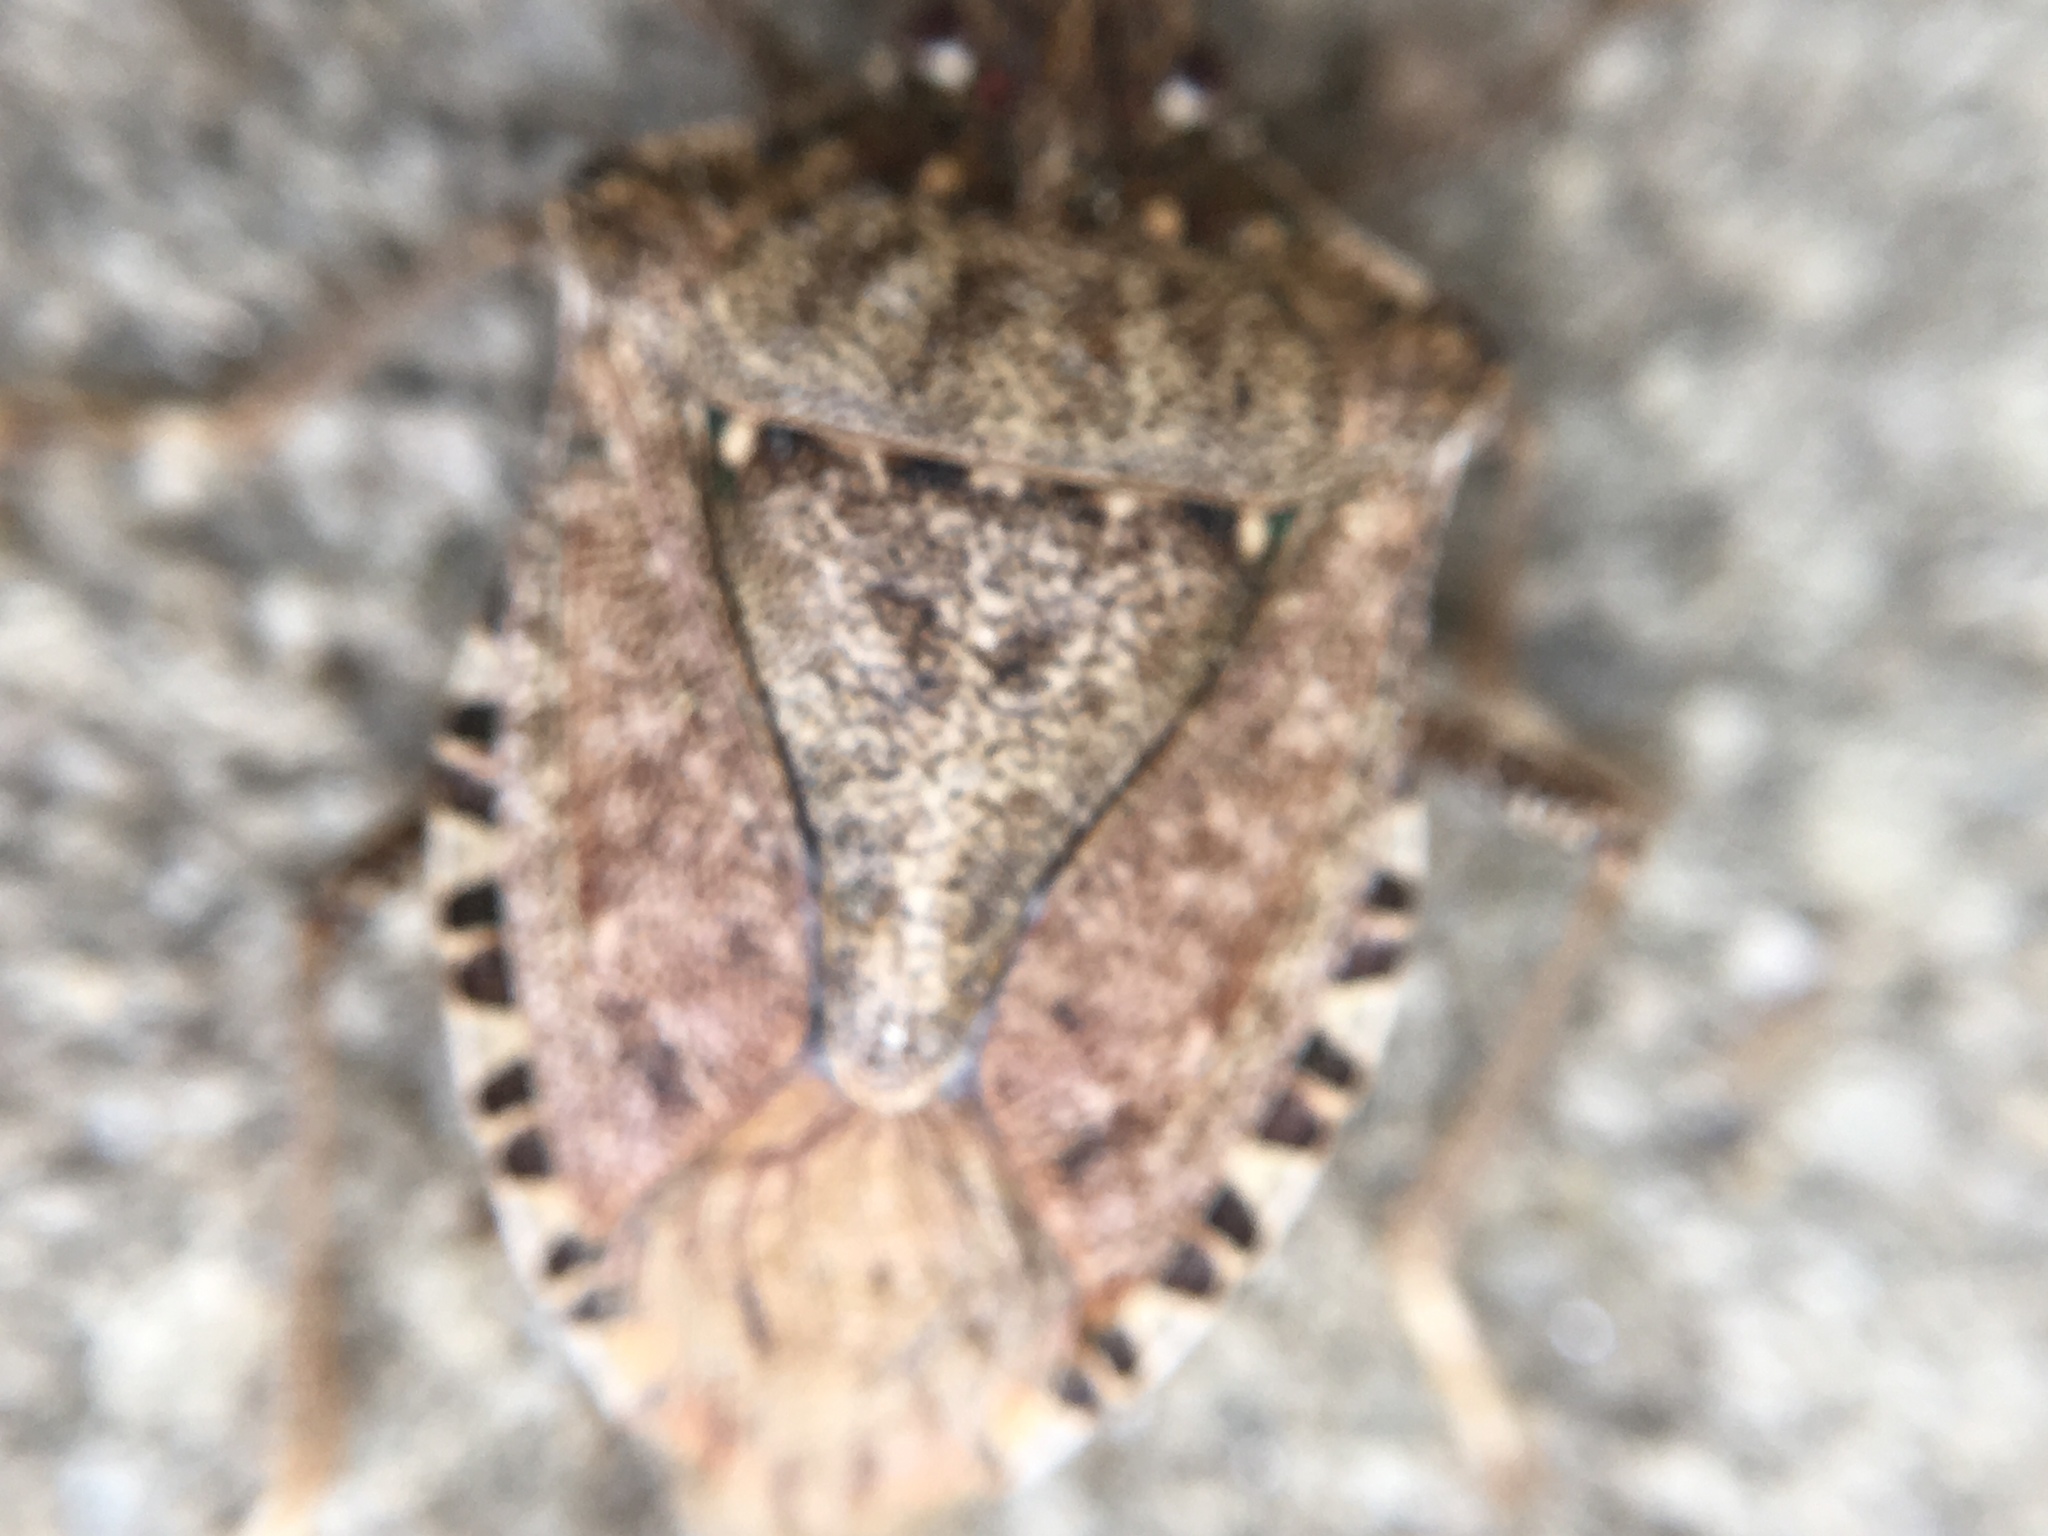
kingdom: Animalia
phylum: Arthropoda
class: Insecta
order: Hemiptera
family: Pentatomidae
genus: Halyomorpha
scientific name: Halyomorpha halys
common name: Brown marmorated stink bug
